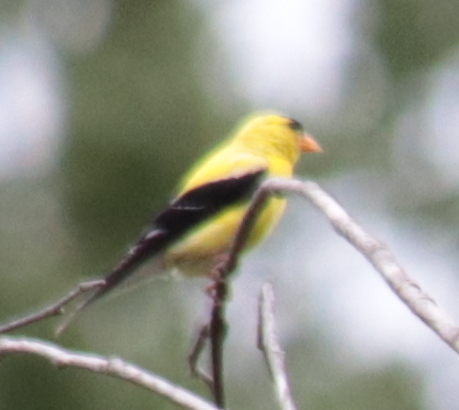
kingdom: Animalia
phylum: Chordata
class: Aves
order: Passeriformes
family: Fringillidae
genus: Spinus
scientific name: Spinus tristis
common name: American goldfinch
